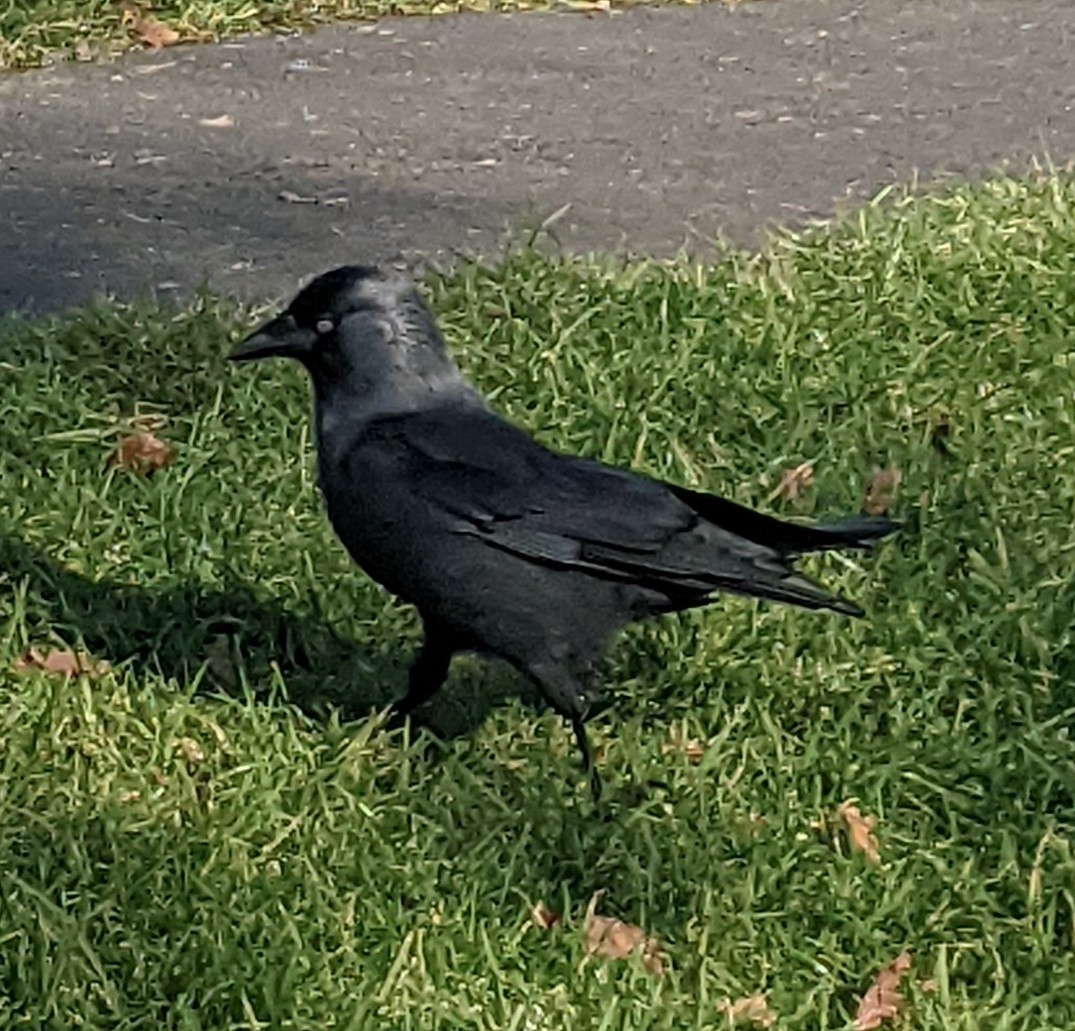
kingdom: Animalia
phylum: Chordata
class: Aves
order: Passeriformes
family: Corvidae
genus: Coloeus
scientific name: Coloeus monedula
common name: Western jackdaw
